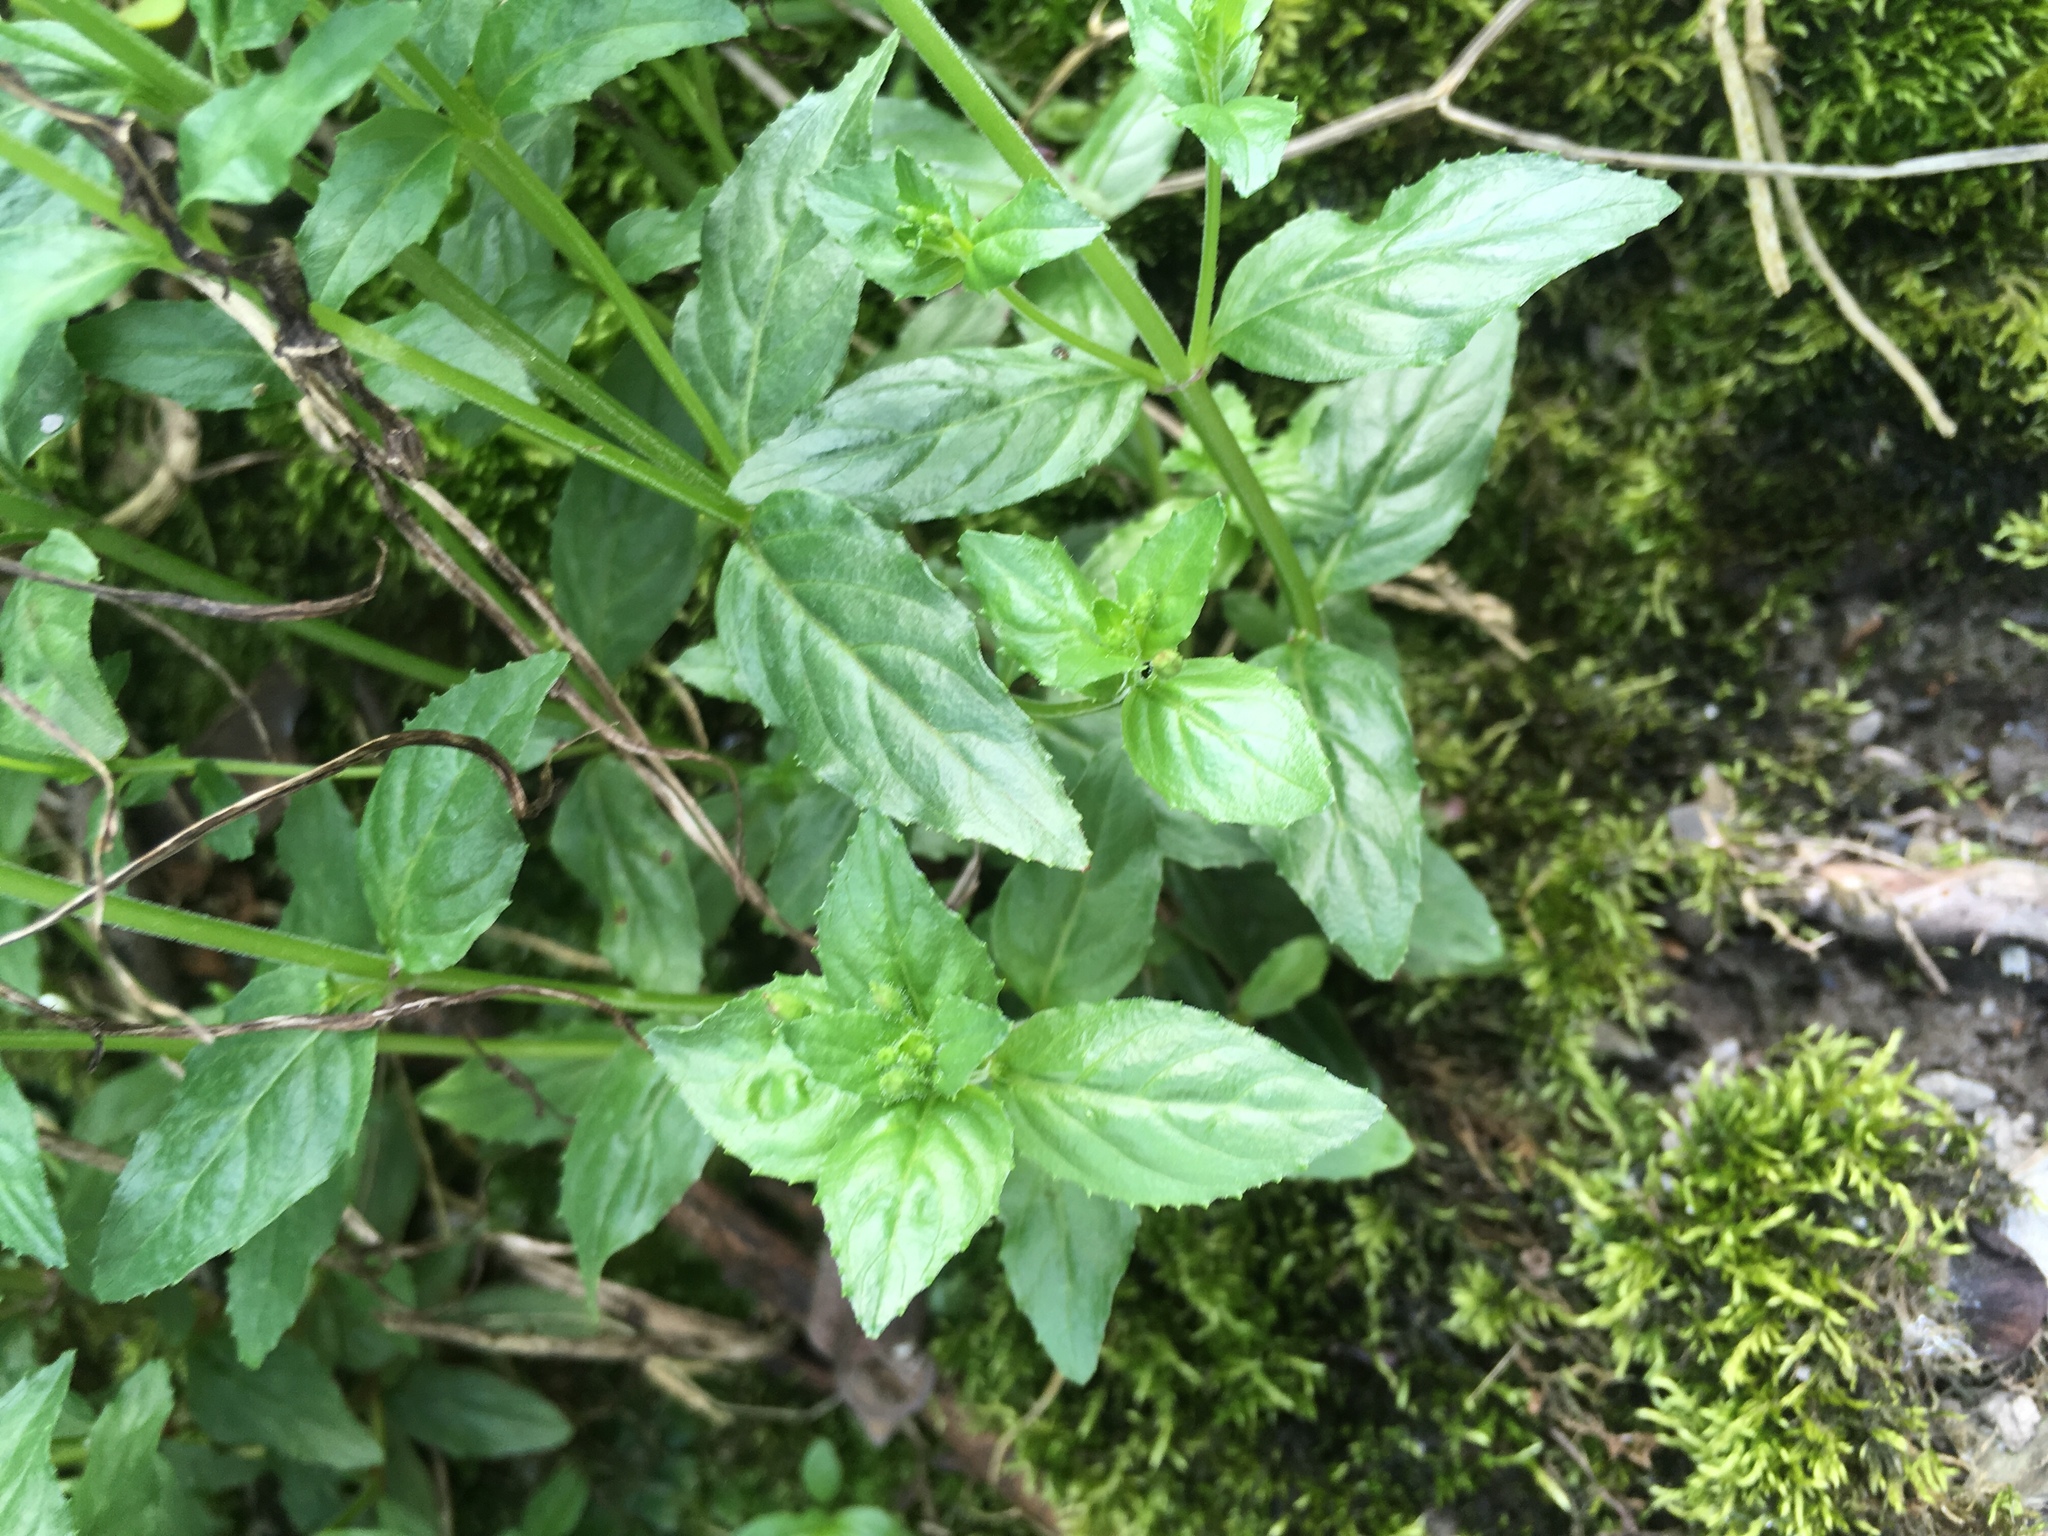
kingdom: Plantae
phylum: Tracheophyta
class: Magnoliopsida
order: Myrtales
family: Onagraceae
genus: Epilobium
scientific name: Epilobium amurense
